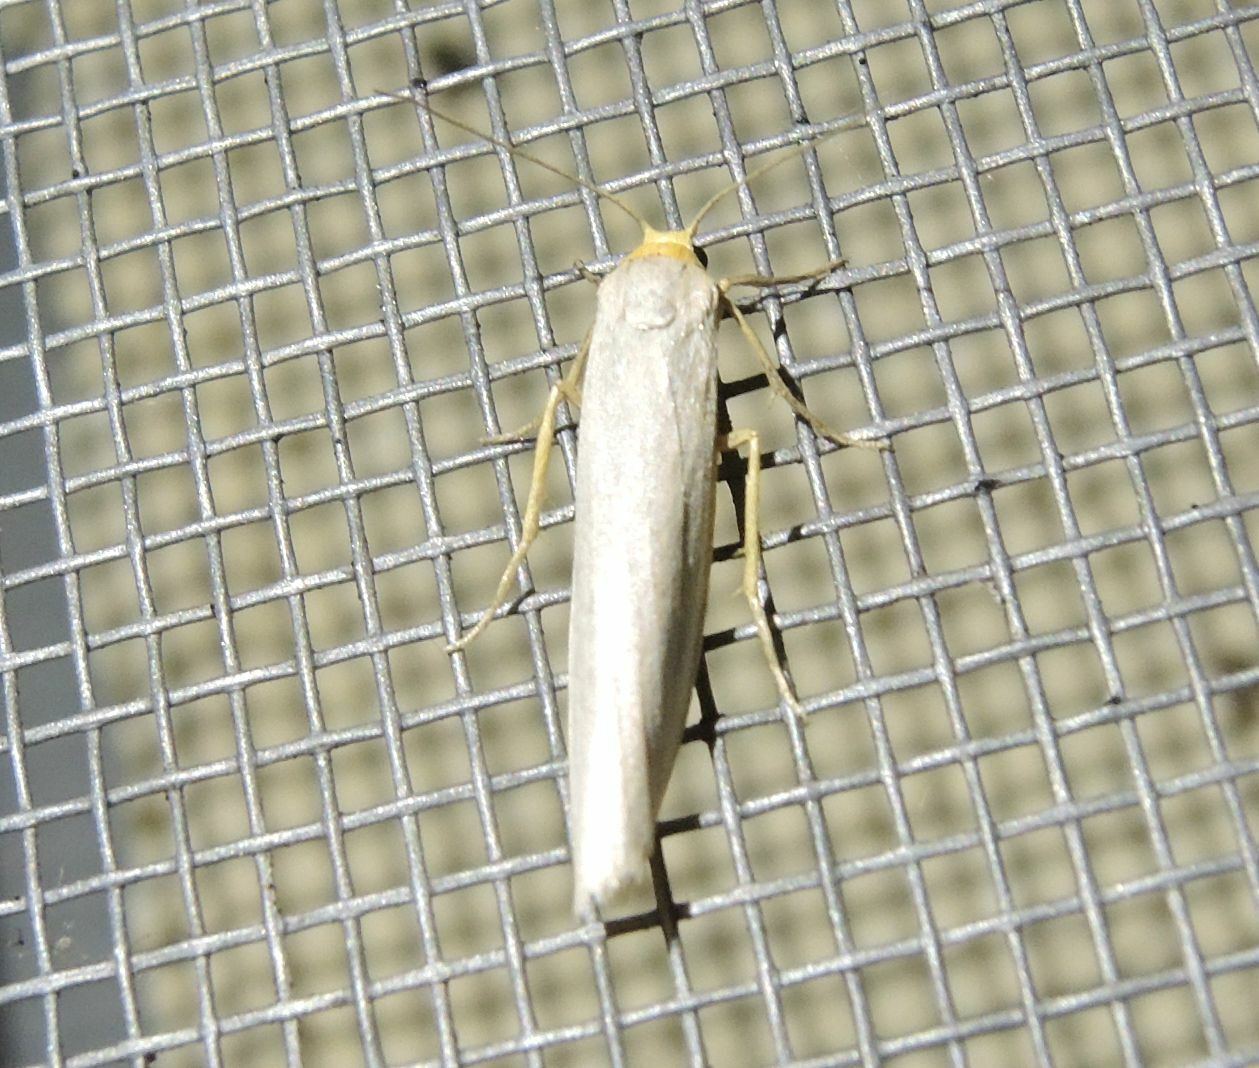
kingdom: Animalia
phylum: Arthropoda
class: Insecta
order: Lepidoptera
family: Erebidae
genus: Eilema
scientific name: Eilema caniola
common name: Hoary footman
